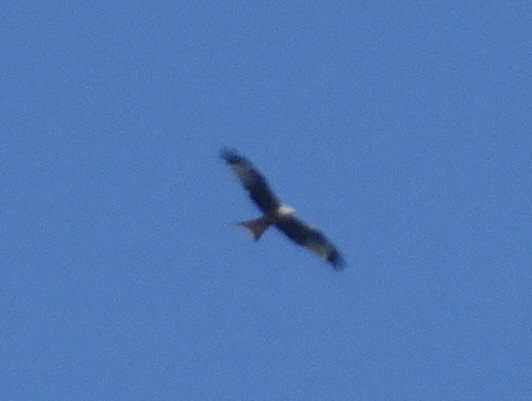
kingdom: Animalia
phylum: Chordata
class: Aves
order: Accipitriformes
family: Accipitridae
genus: Milvus
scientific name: Milvus milvus
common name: Red kite
